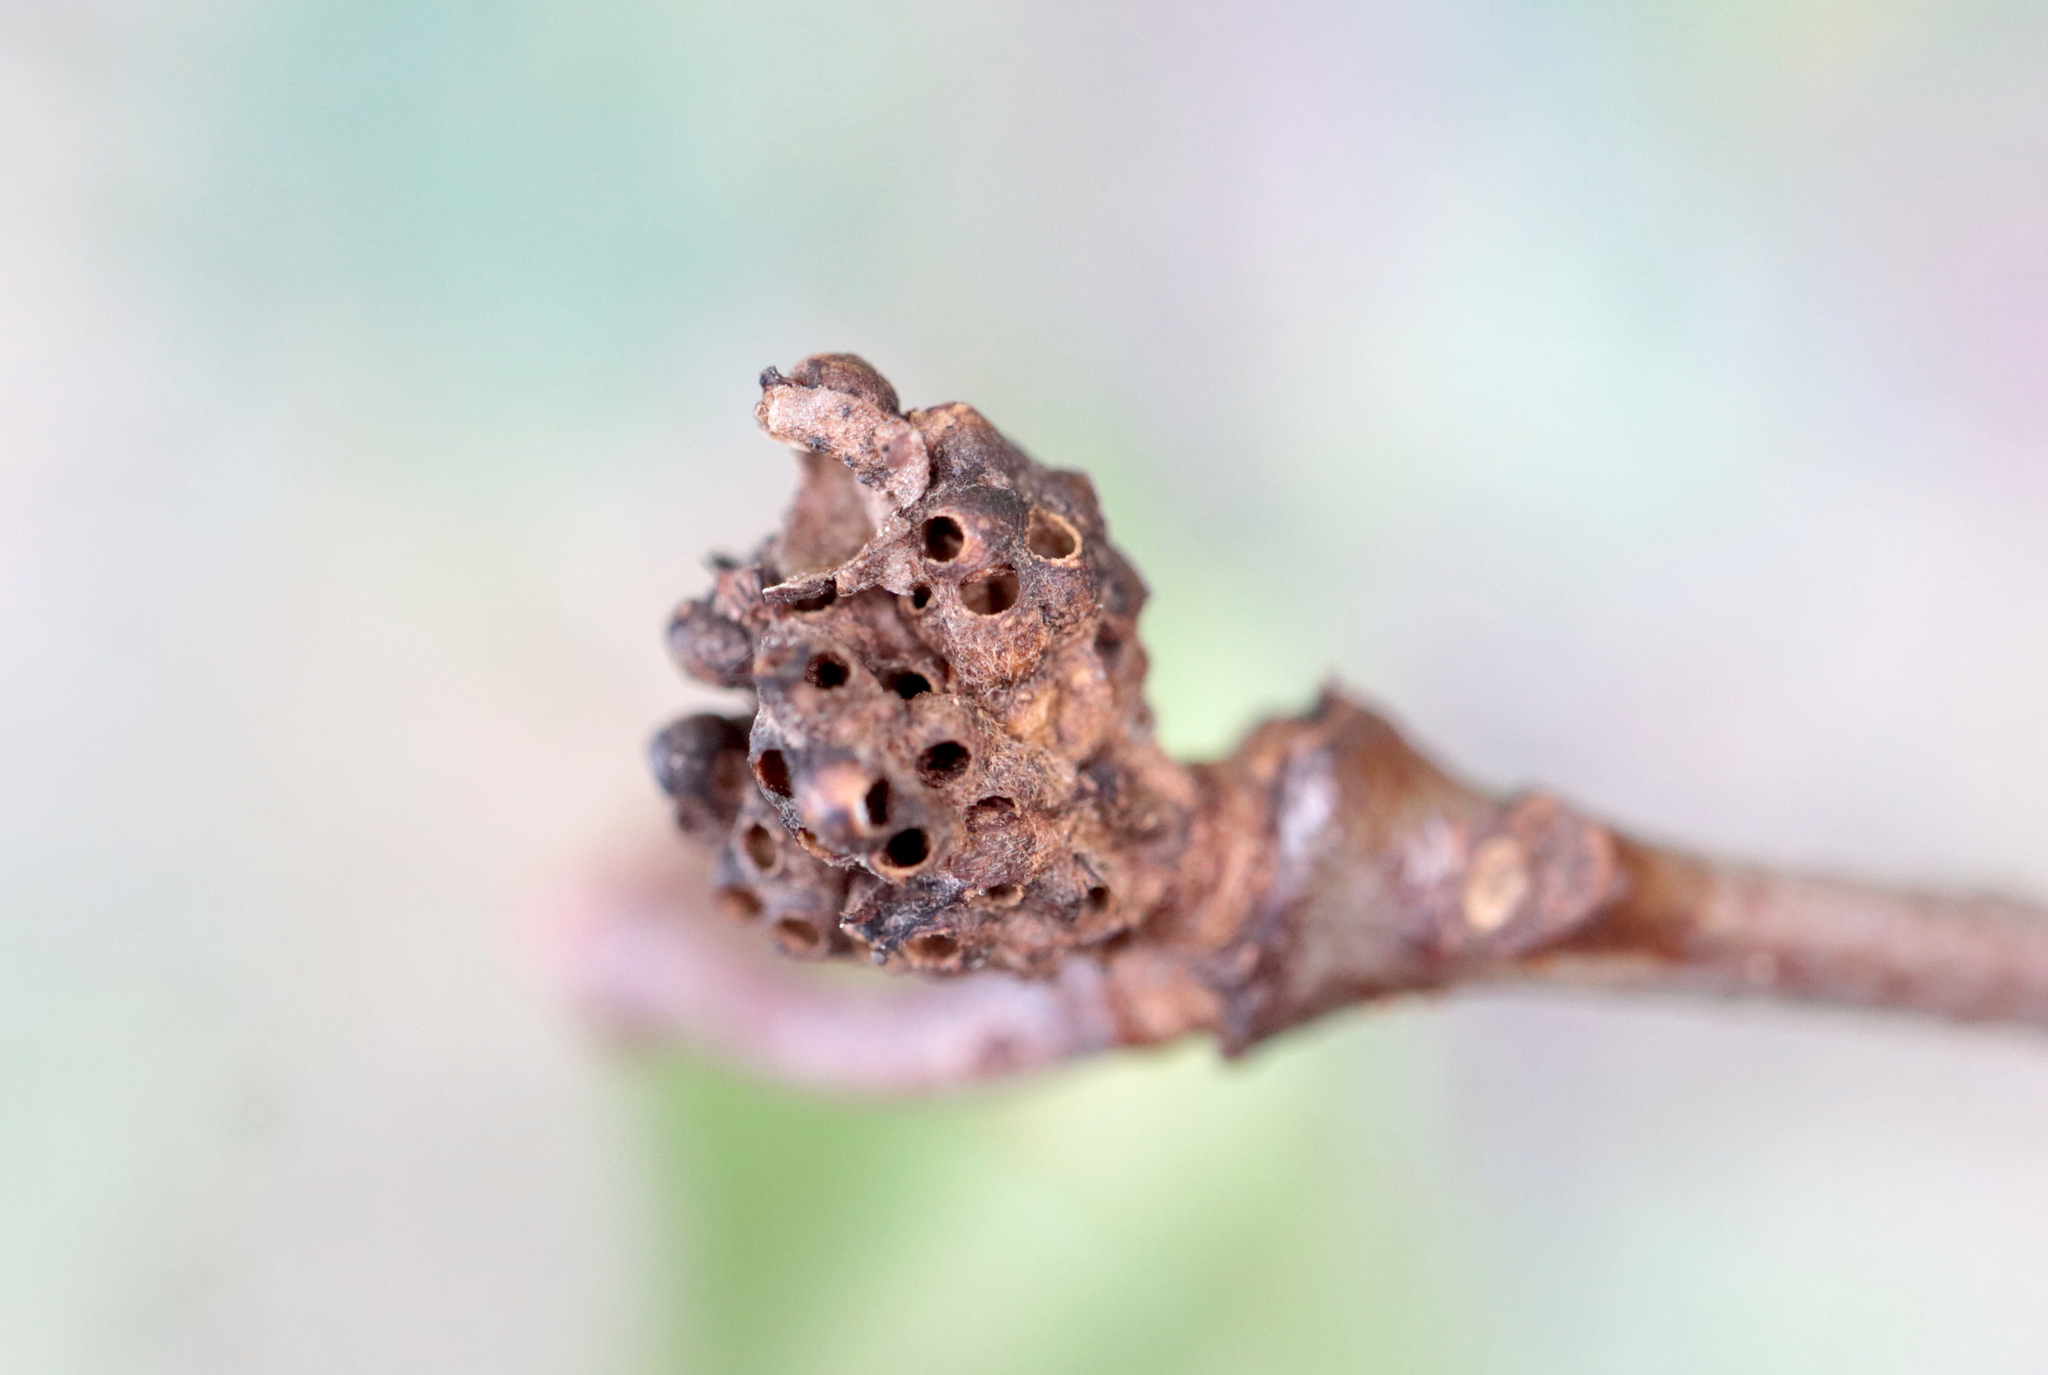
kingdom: Animalia
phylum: Arthropoda
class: Insecta
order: Hymenoptera
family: Cynipidae
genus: Neuroterus
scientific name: Neuroterus minutulus
